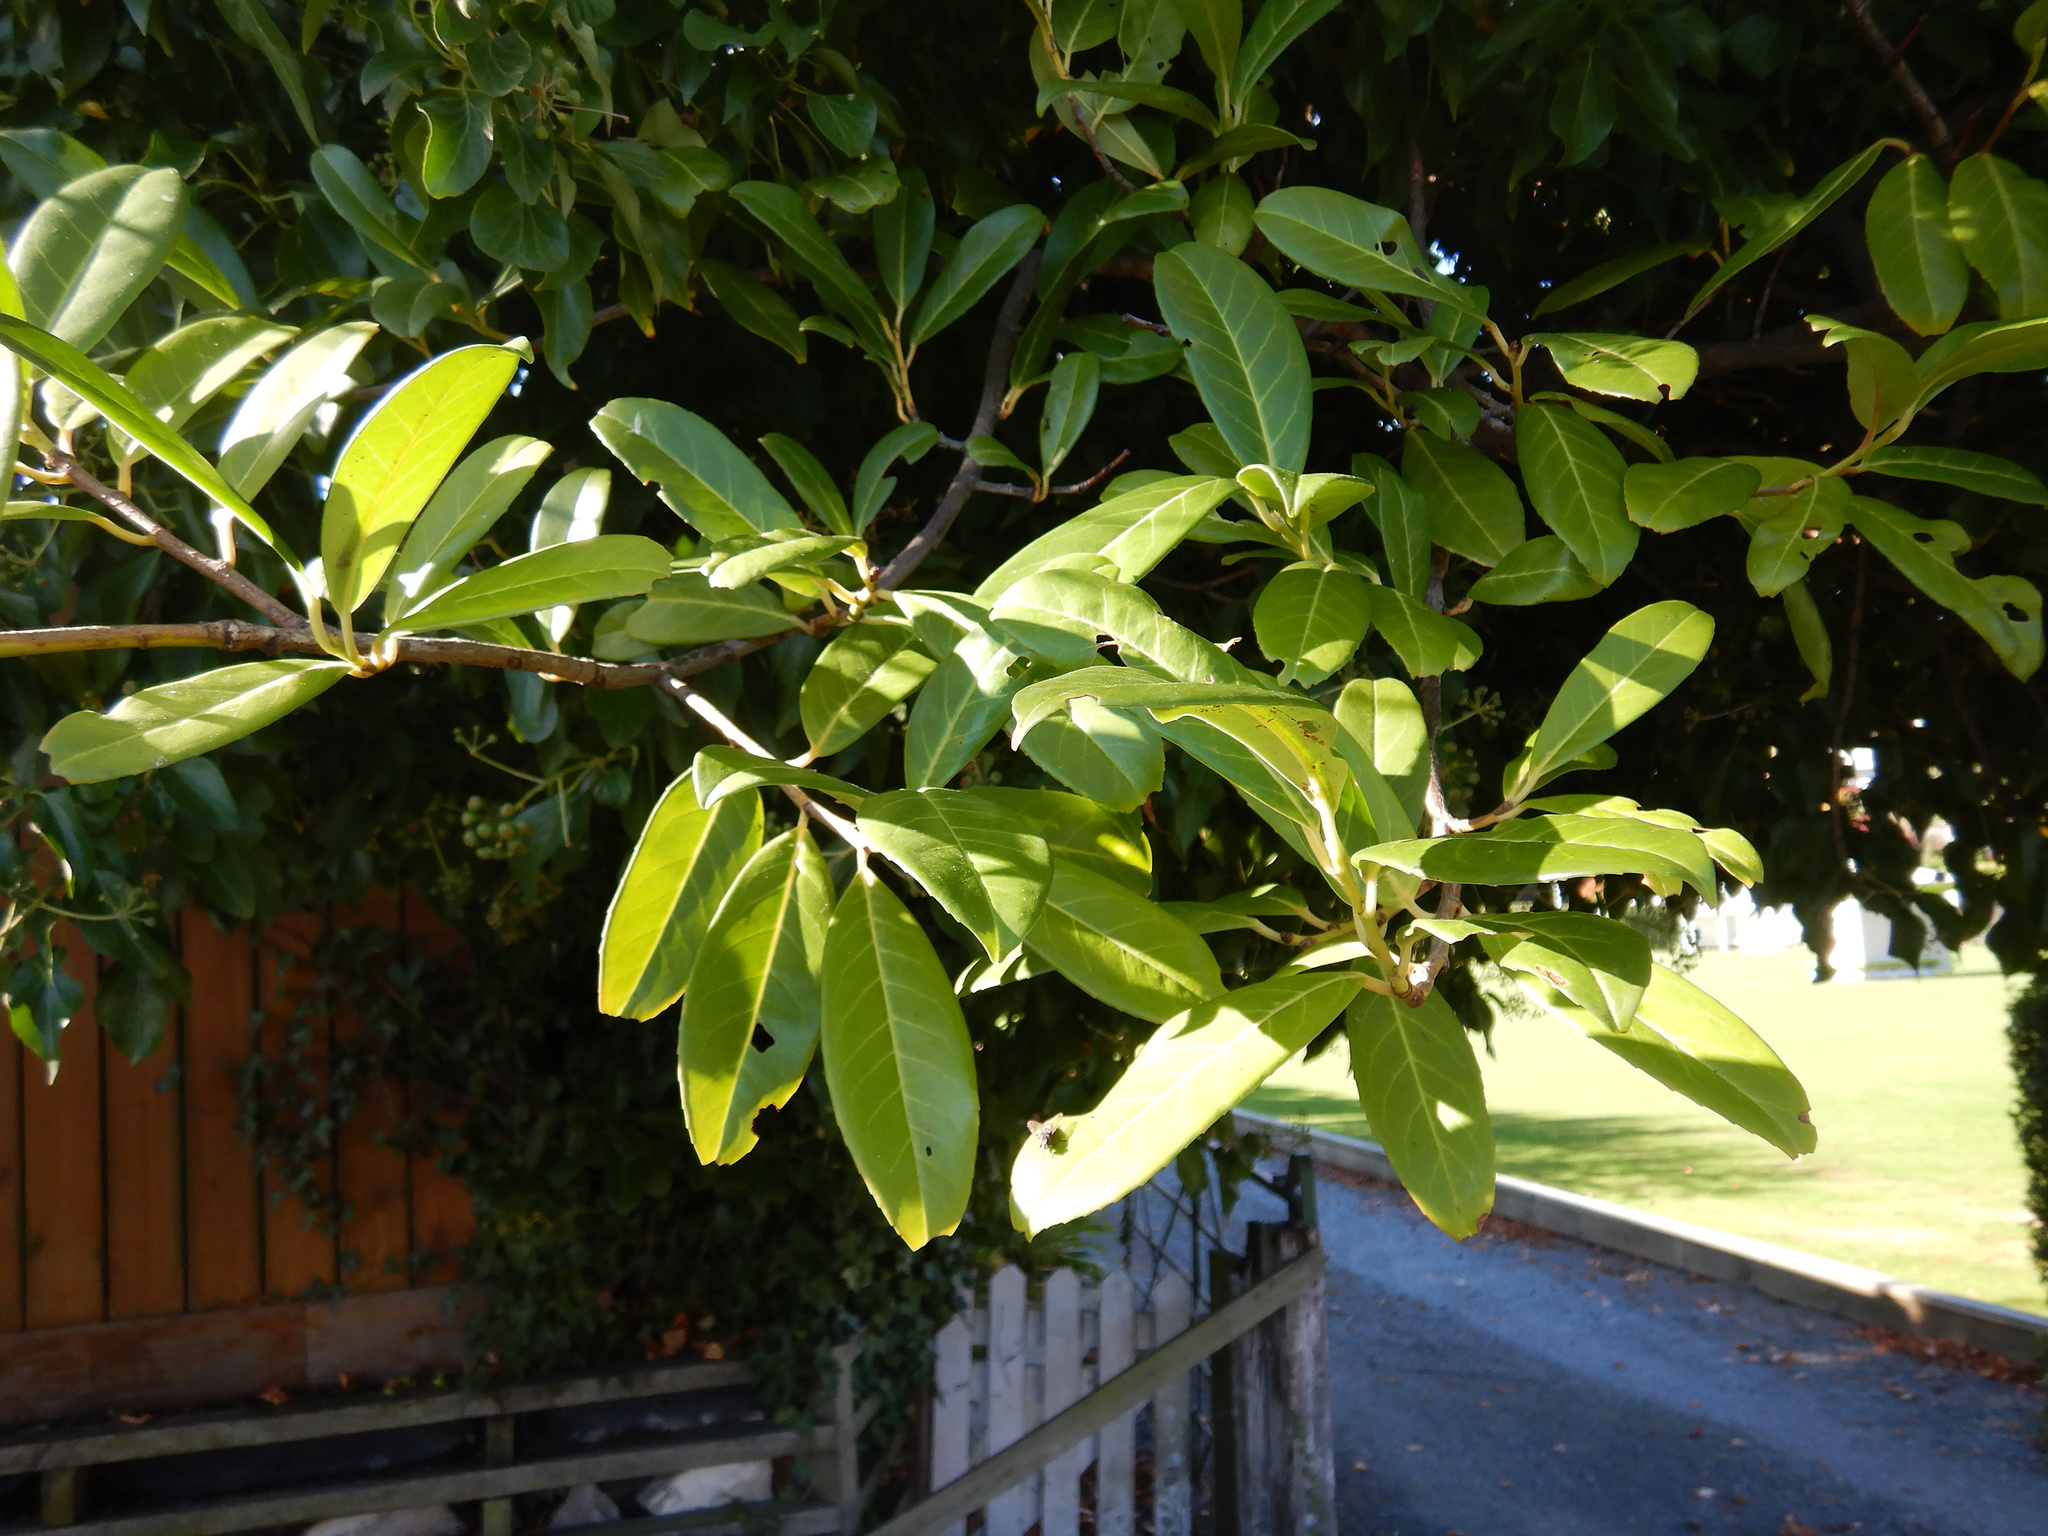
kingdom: Plantae
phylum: Tracheophyta
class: Magnoliopsida
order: Rosales
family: Rosaceae
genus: Prunus
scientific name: Prunus laurocerasus
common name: Cherry laurel
